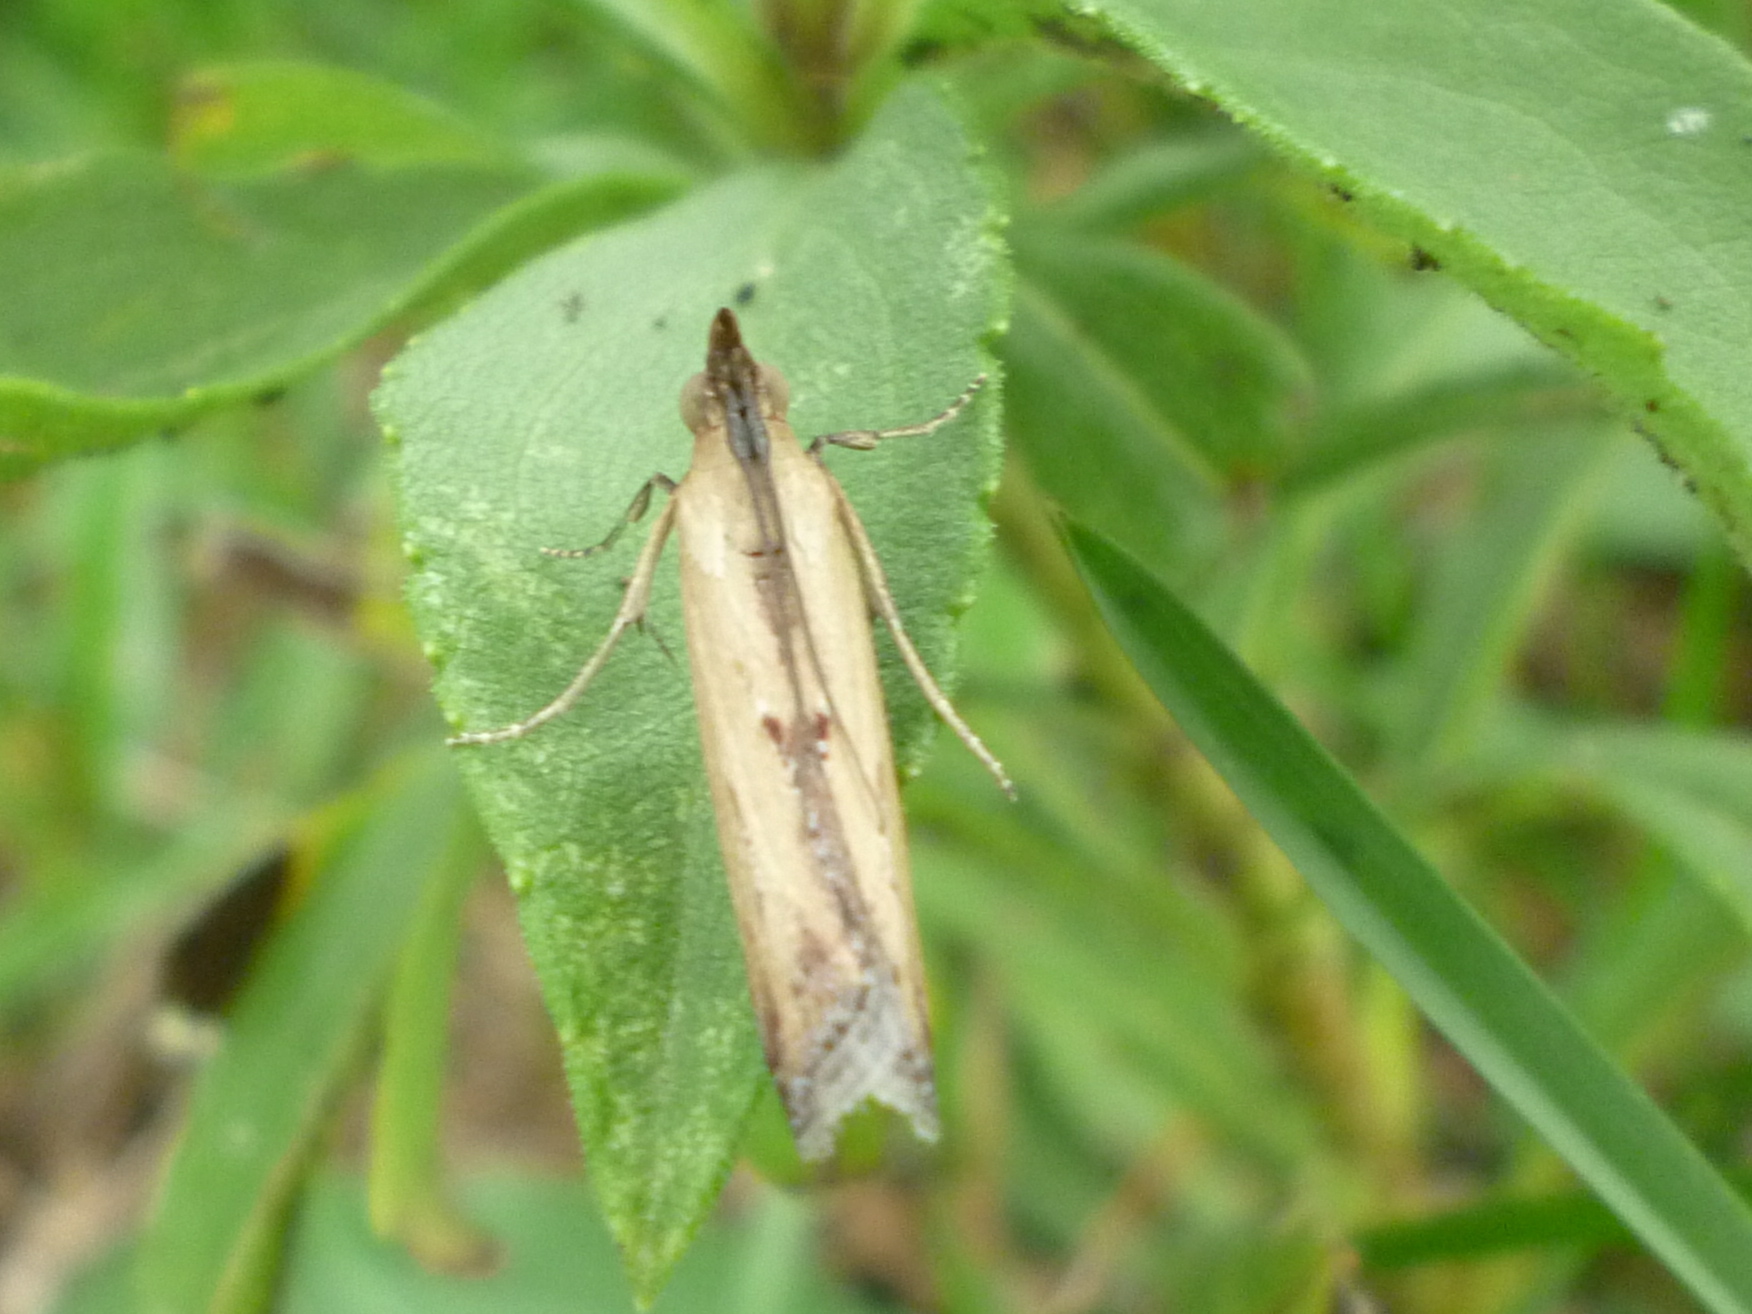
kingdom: Animalia
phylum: Arthropoda
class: Insecta
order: Lepidoptera
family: Pyralidae
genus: Elasmopalpus
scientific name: Elasmopalpus lignosella
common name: Lesser cornstalk borer
